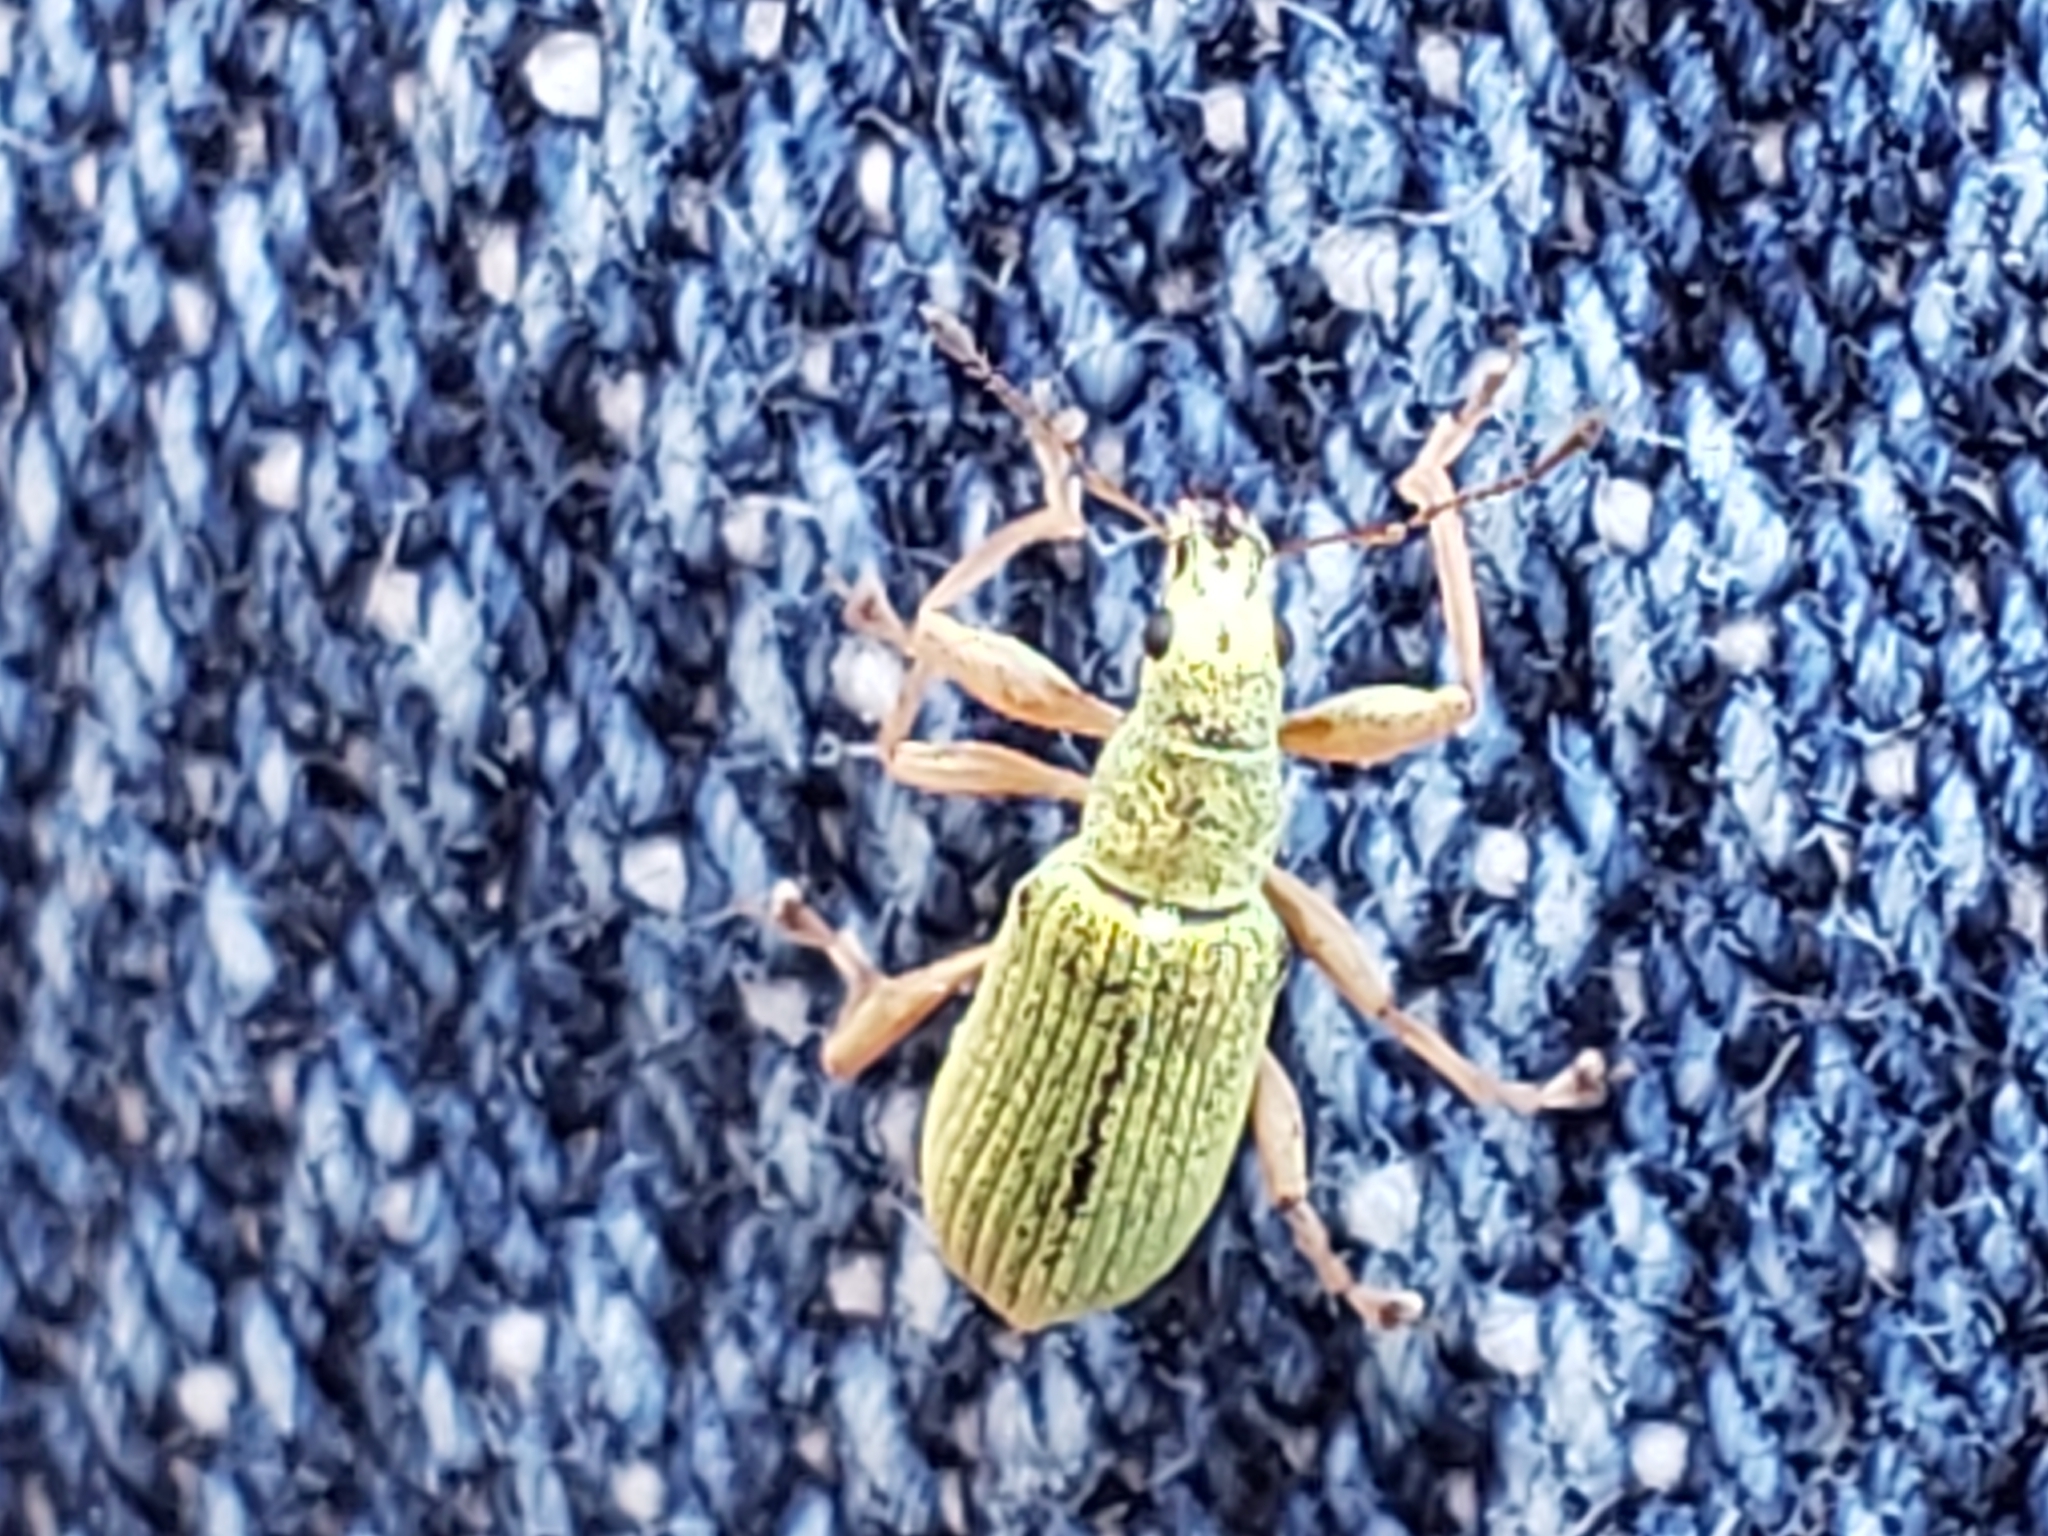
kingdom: Animalia
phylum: Arthropoda
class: Insecta
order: Coleoptera
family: Curculionidae
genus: Polydrusus
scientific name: Polydrusus impressifrons
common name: Weevil
